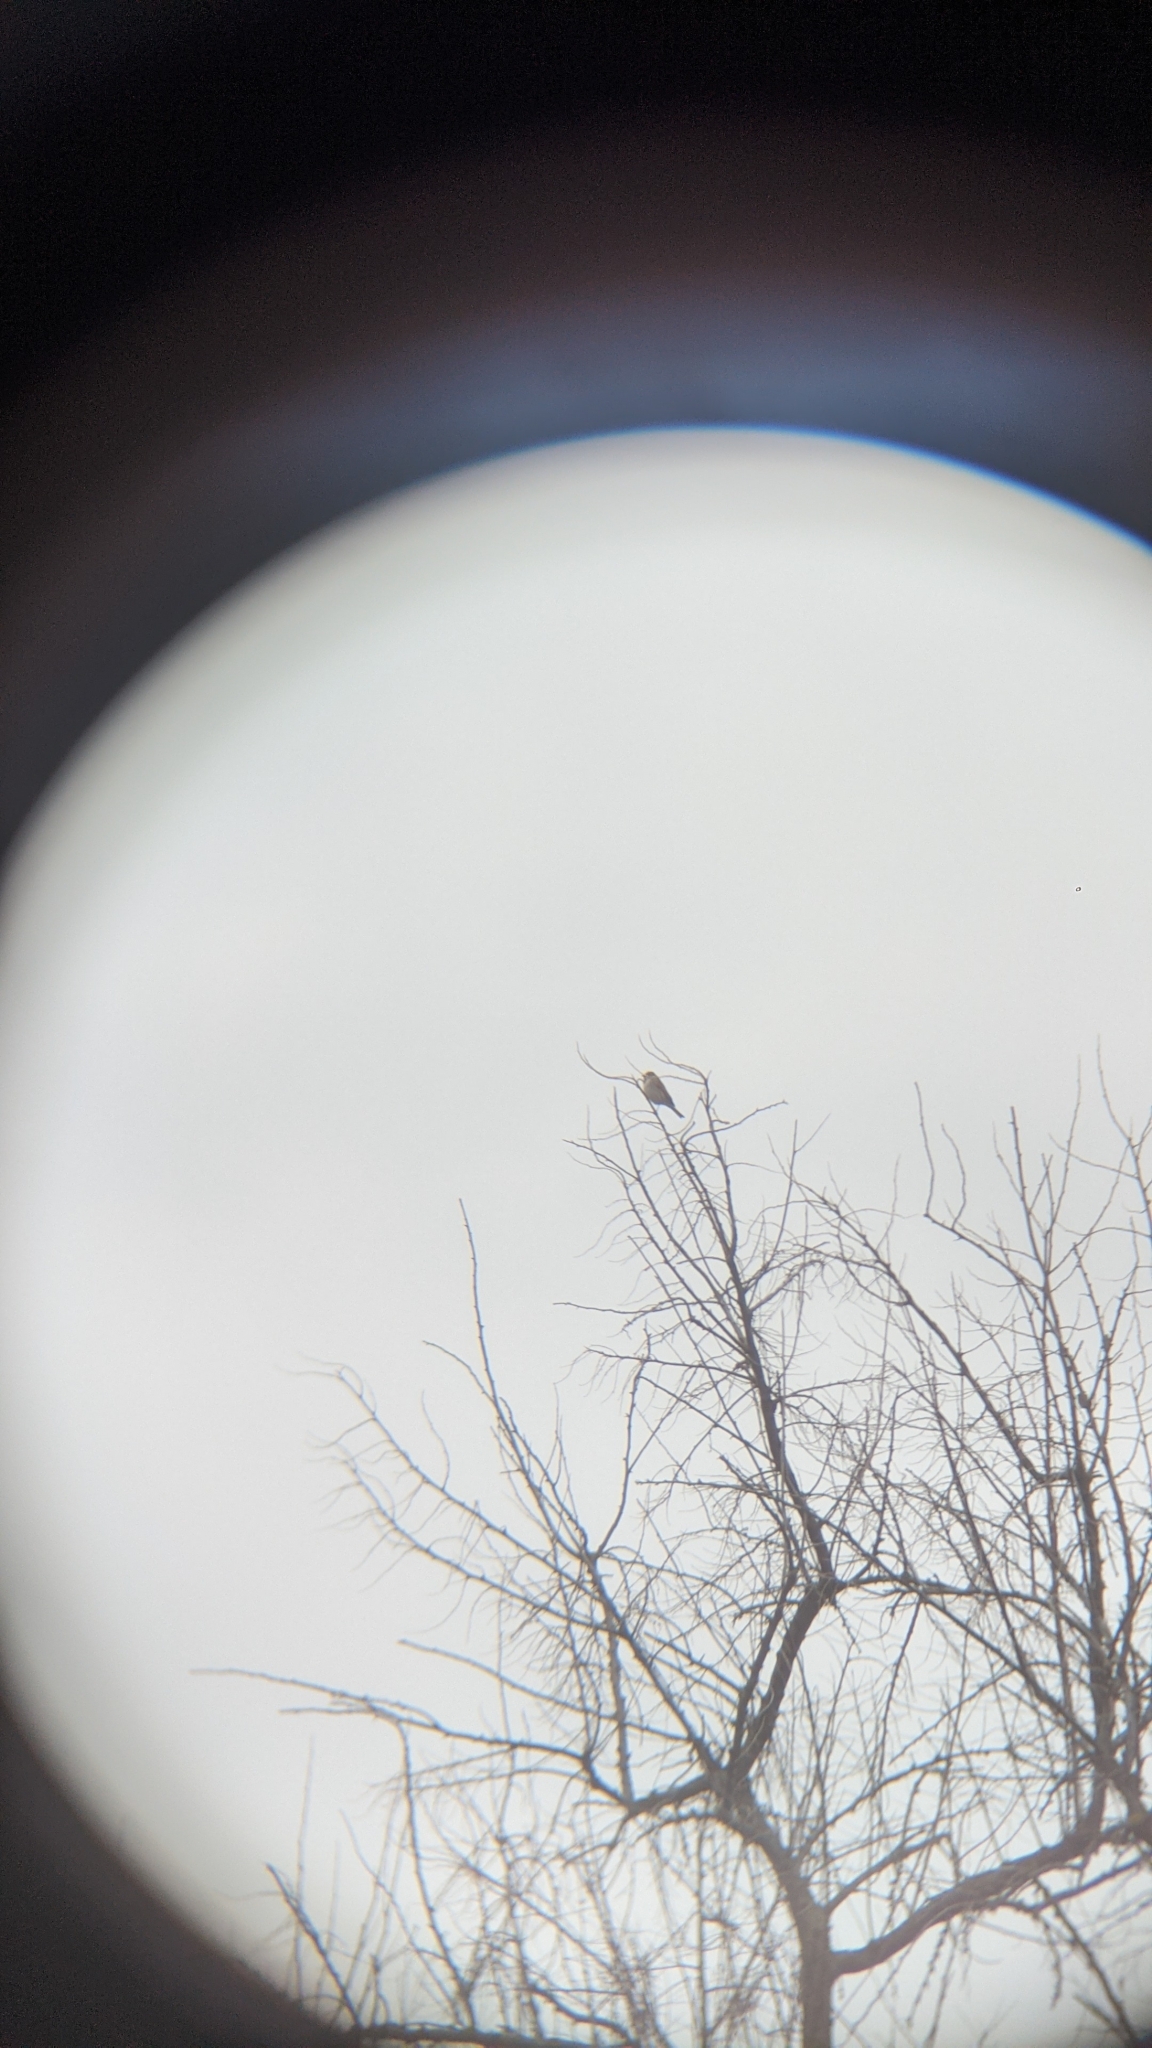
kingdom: Animalia
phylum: Chordata
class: Aves
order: Passeriformes
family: Emberizidae
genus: Emberiza
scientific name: Emberiza schoeniclus
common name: Reed bunting
